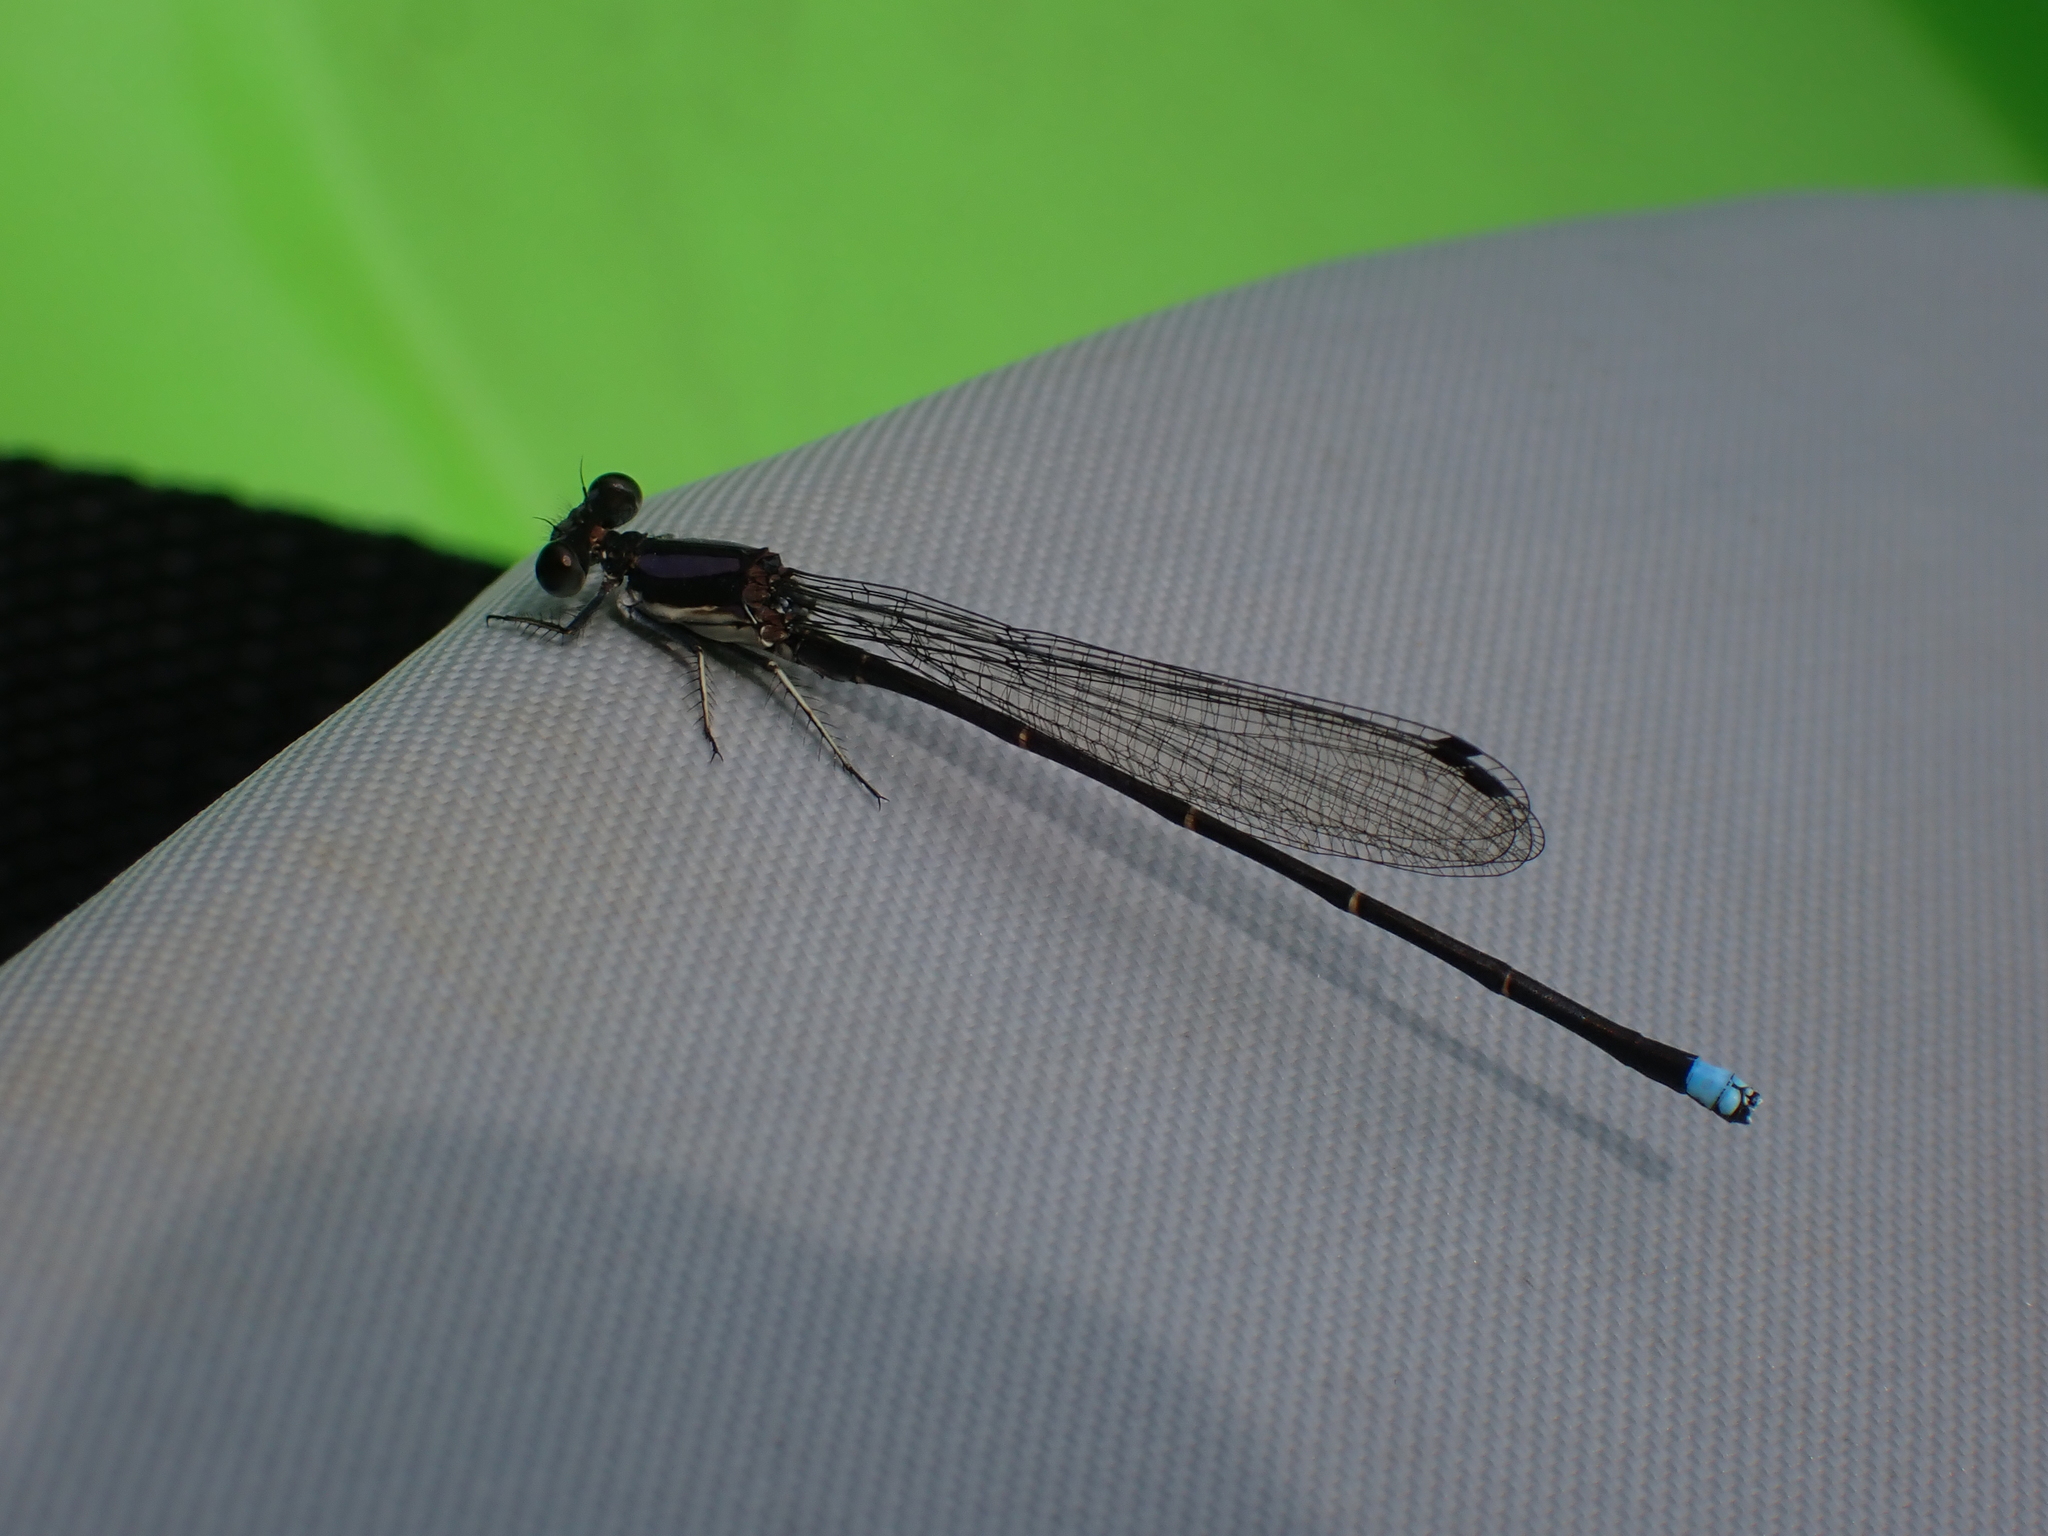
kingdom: Animalia
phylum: Arthropoda
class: Insecta
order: Odonata
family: Coenagrionidae
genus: Argia
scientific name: Argia tibialis
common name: Blue-tipped dancer
